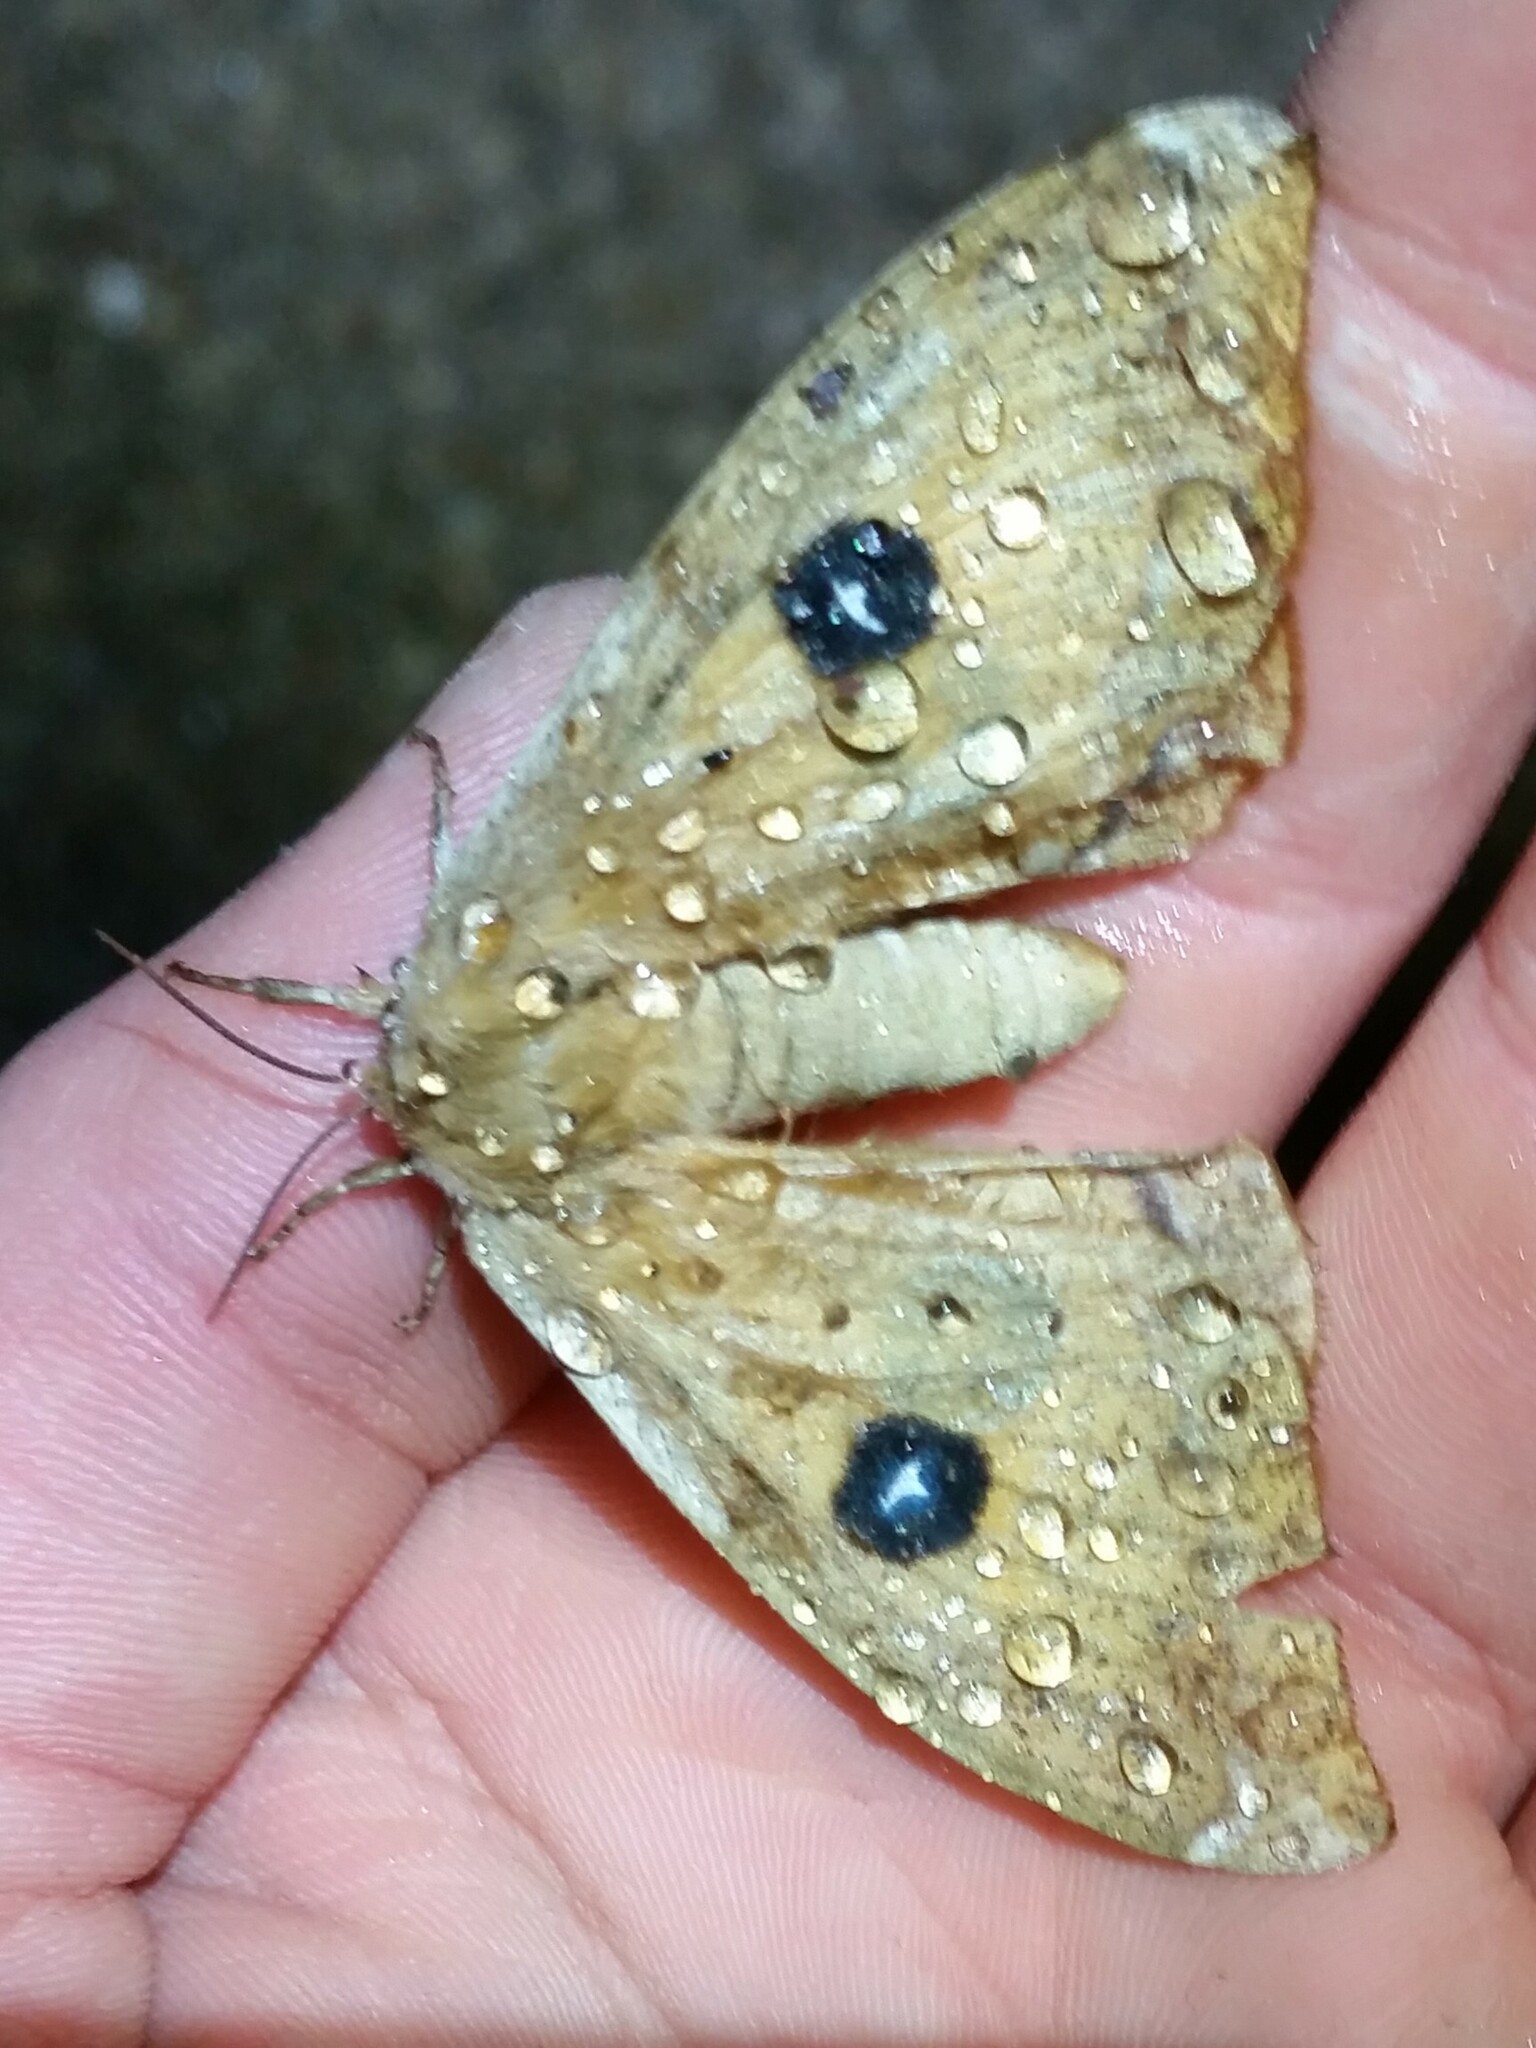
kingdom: Animalia
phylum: Arthropoda
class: Insecta
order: Lepidoptera
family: Saturniidae
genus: Aglia
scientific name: Aglia tau
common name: Tau emperor
